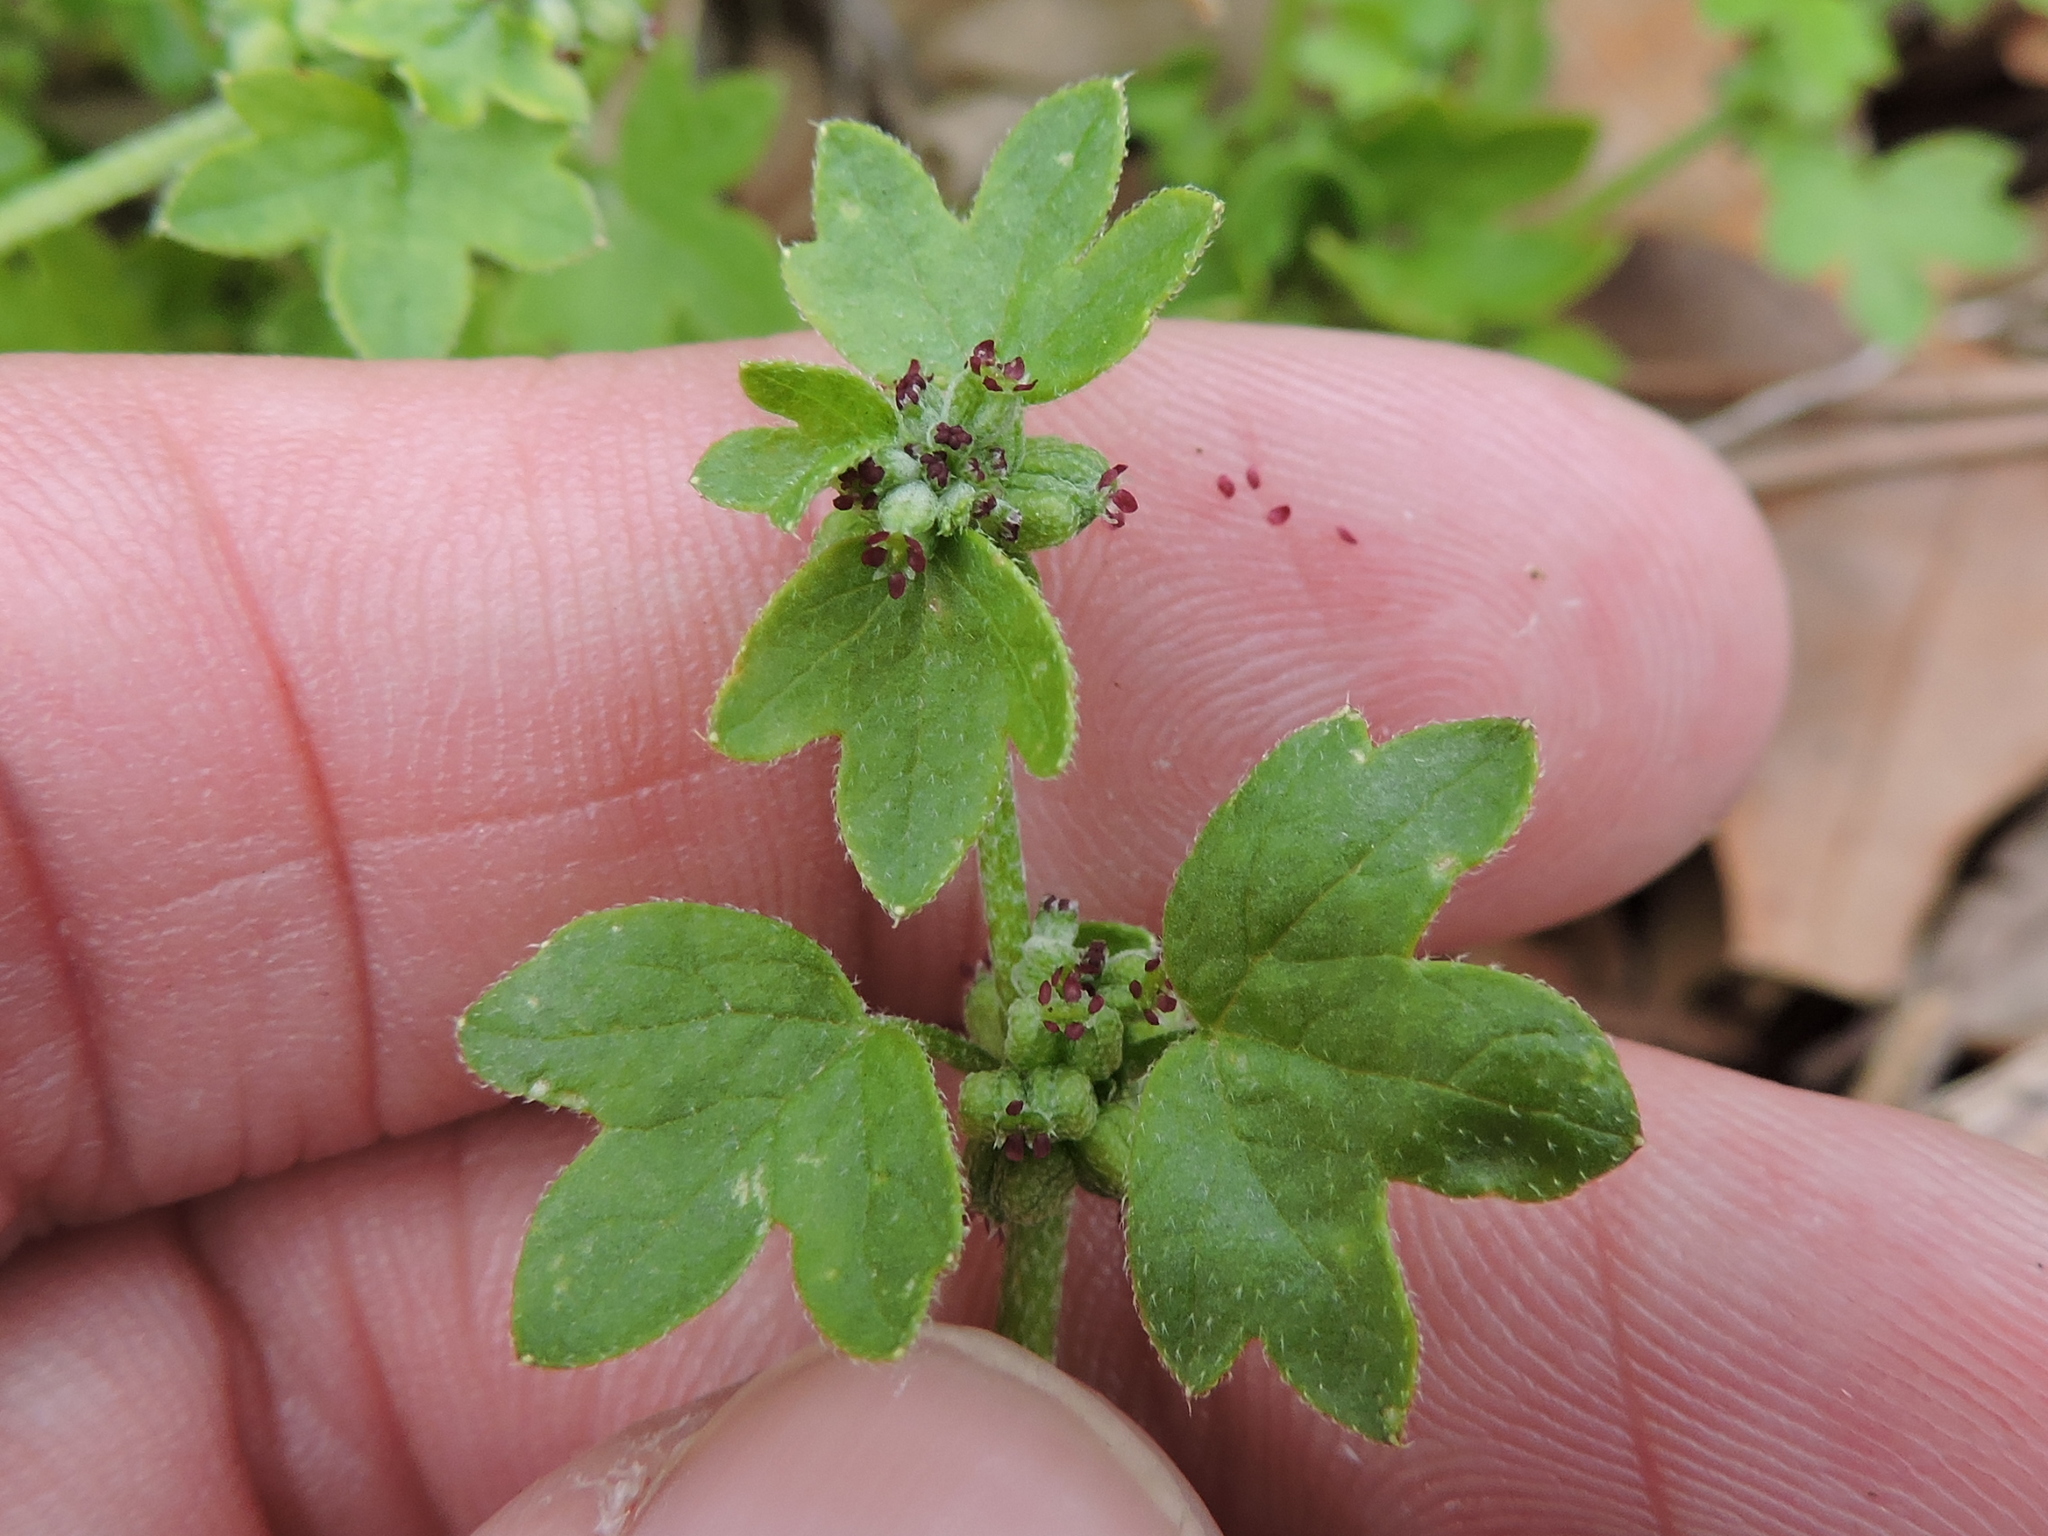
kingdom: Plantae
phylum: Tracheophyta
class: Magnoliopsida
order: Apiales
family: Apiaceae
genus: Bowlesia
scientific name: Bowlesia incana
